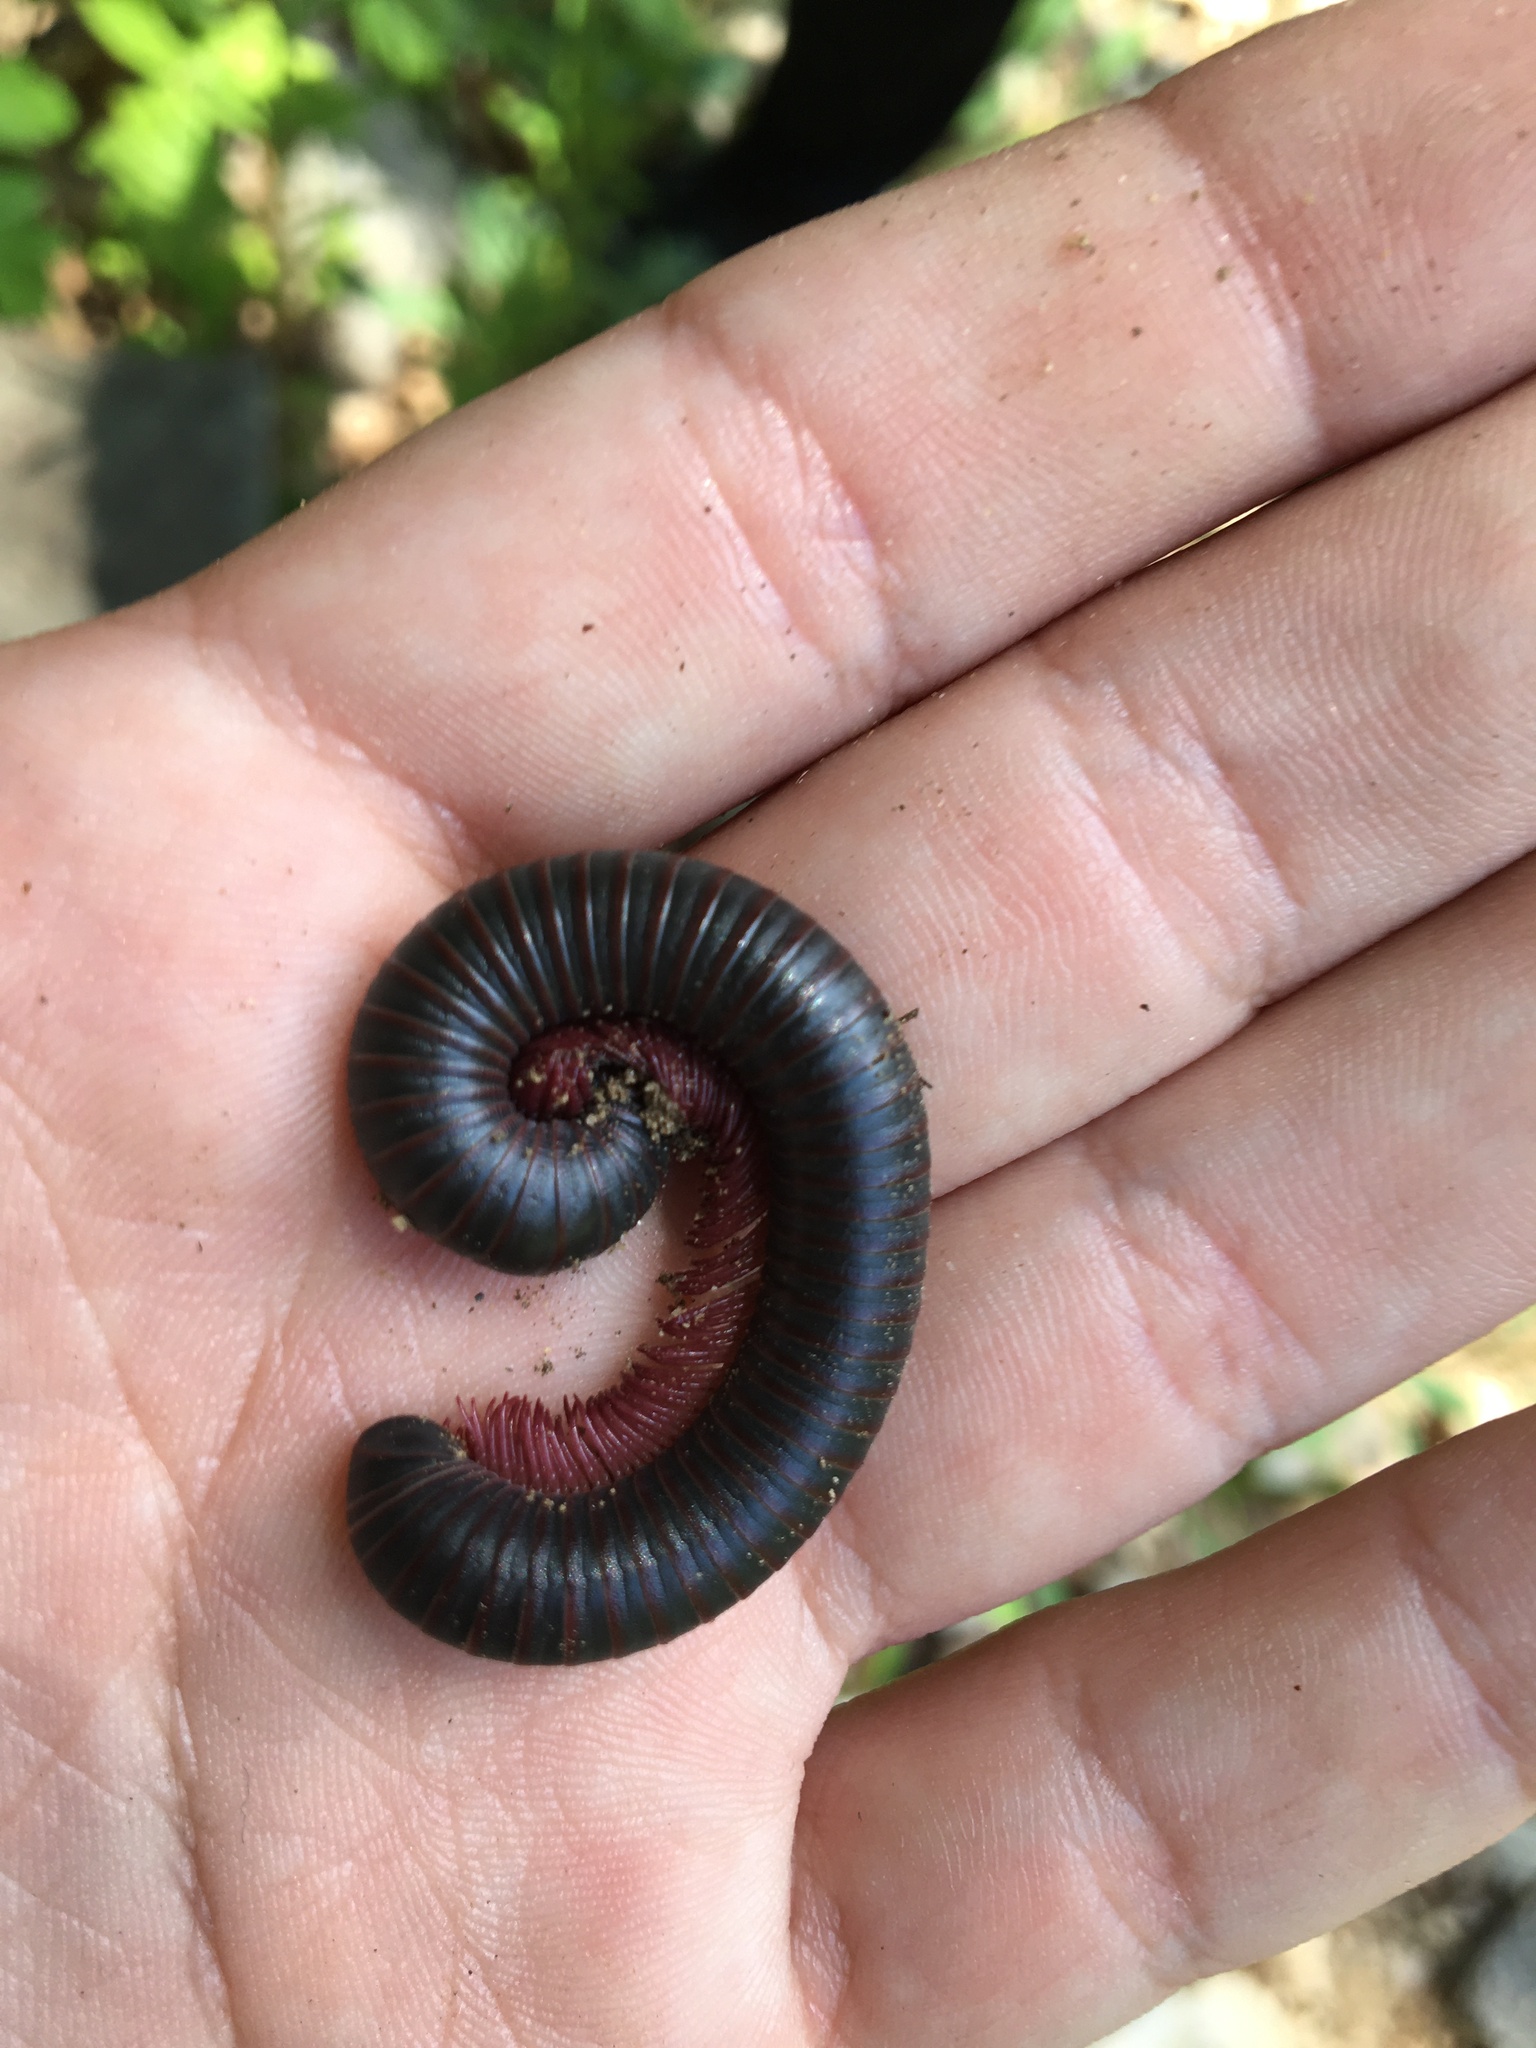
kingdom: Animalia
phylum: Arthropoda
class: Diplopoda
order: Spirobolida
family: Spirobolidae
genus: Narceus
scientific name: Narceus
